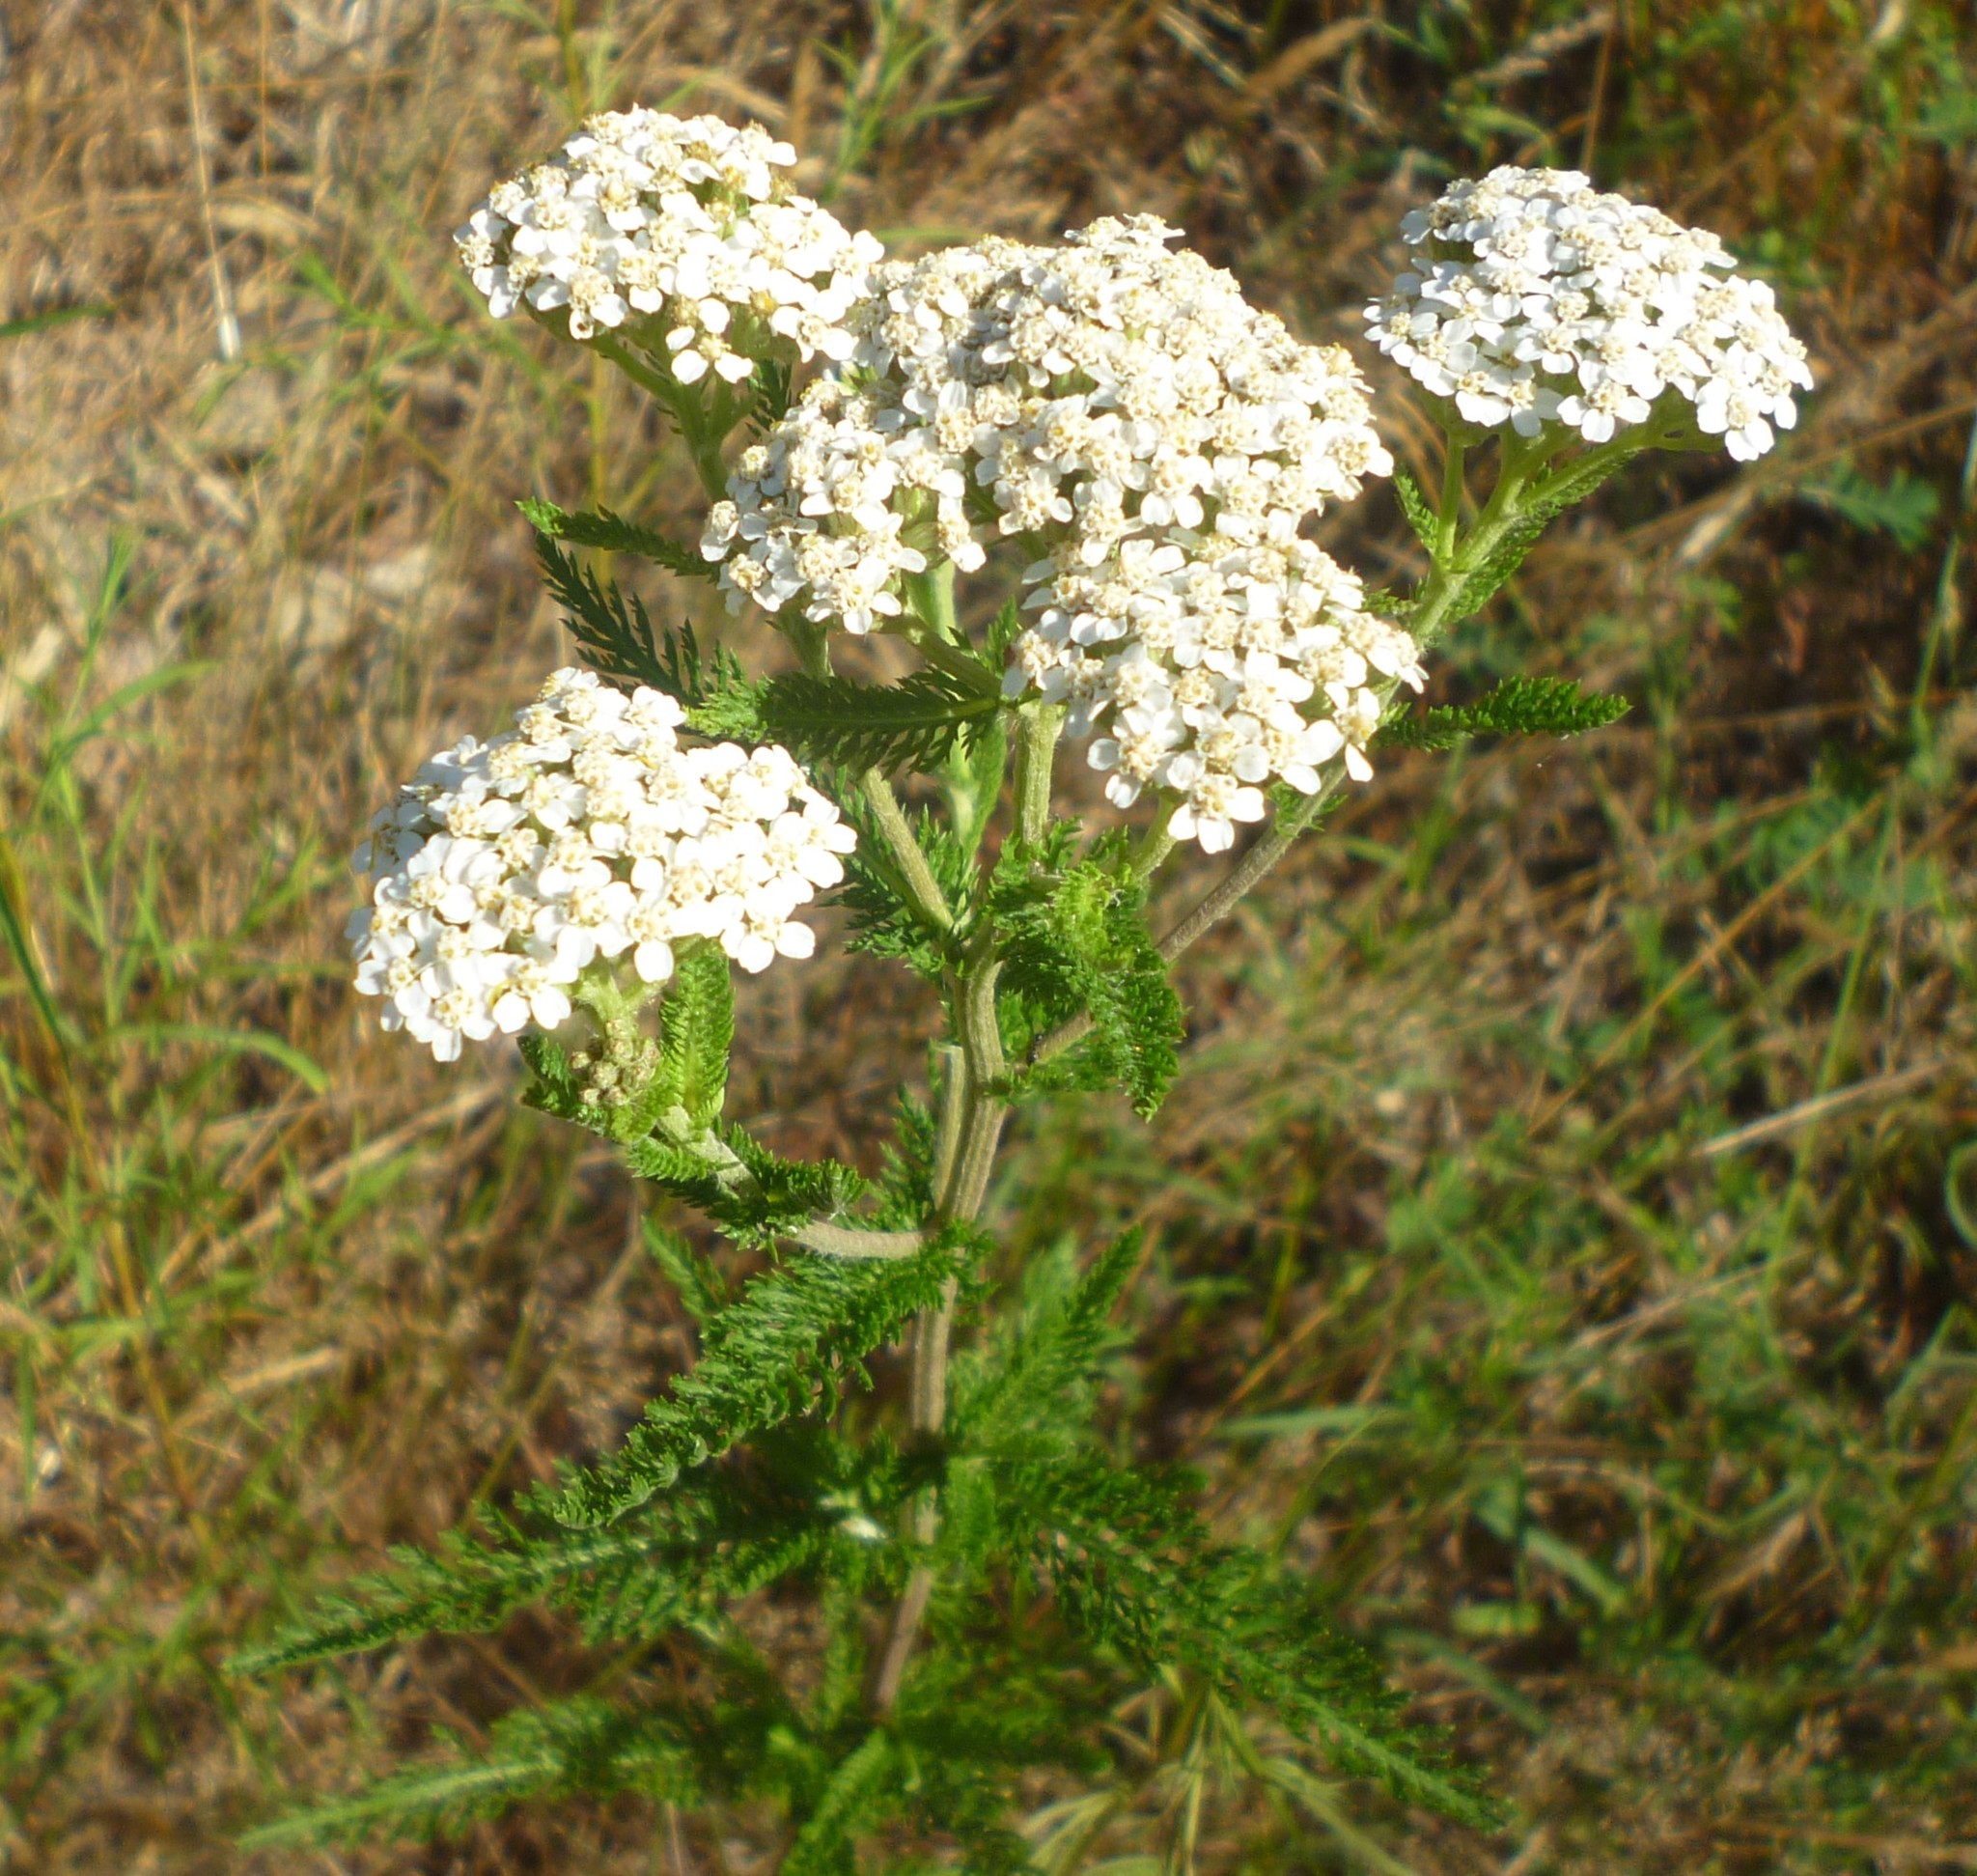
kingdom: Plantae
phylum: Tracheophyta
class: Magnoliopsida
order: Asterales
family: Asteraceae
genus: Achillea
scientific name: Achillea millefolium
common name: Yarrow
